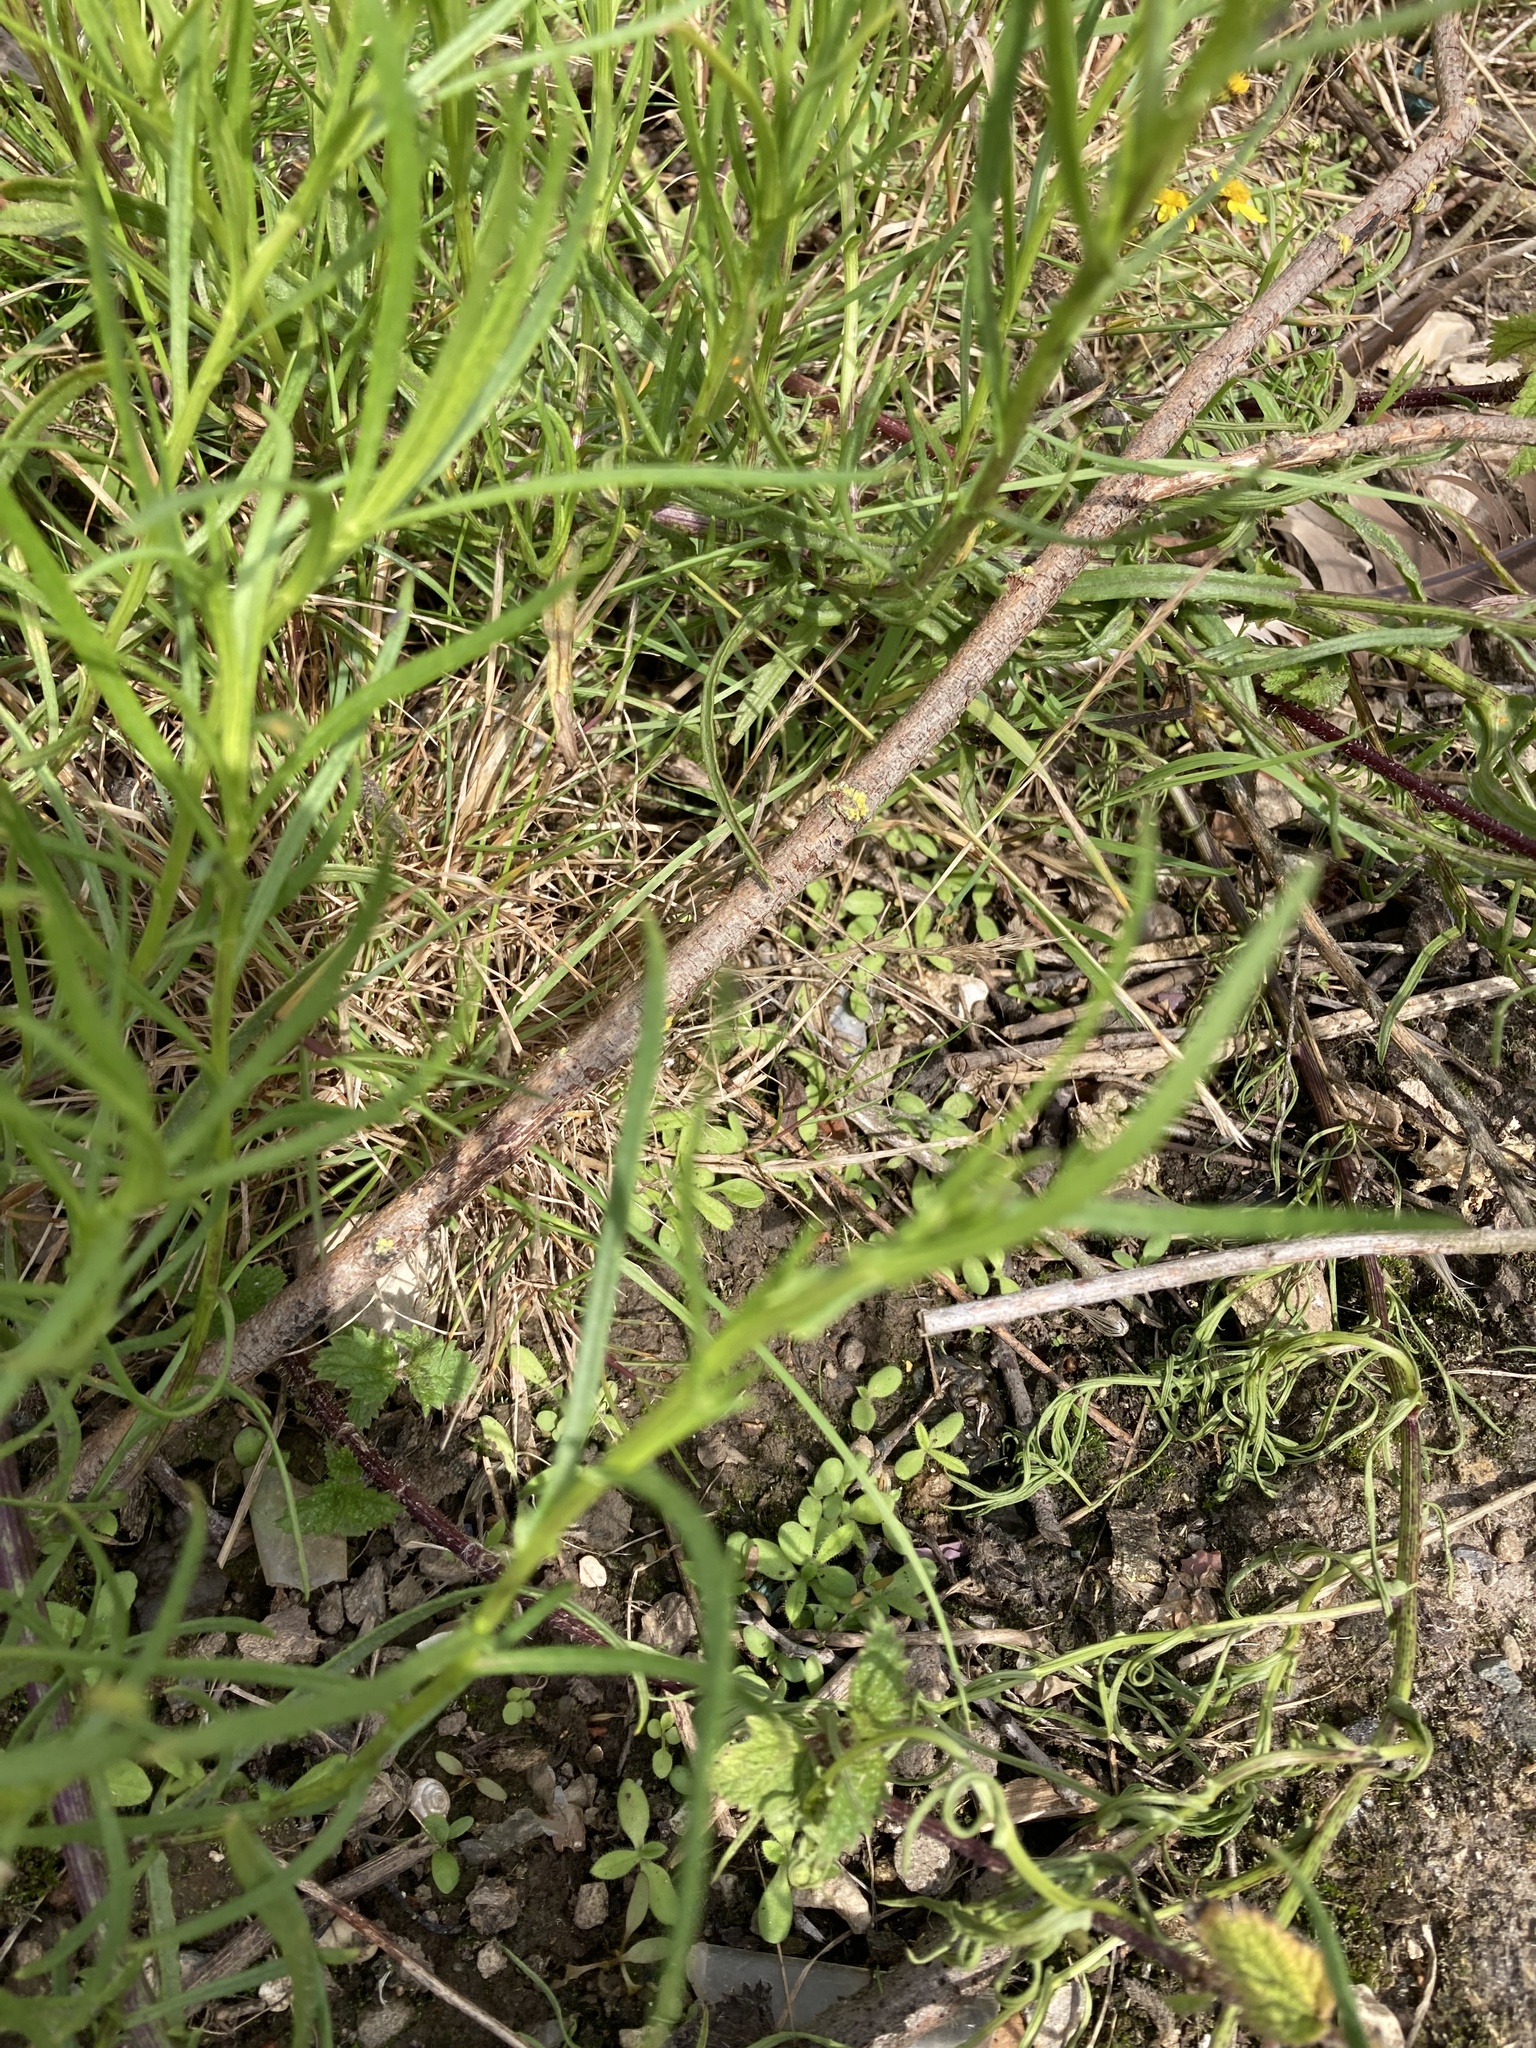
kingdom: Plantae
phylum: Tracheophyta
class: Magnoliopsida
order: Asterales
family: Asteraceae
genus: Senecio
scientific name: Senecio inaequidens
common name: Narrow-leaved ragwort
